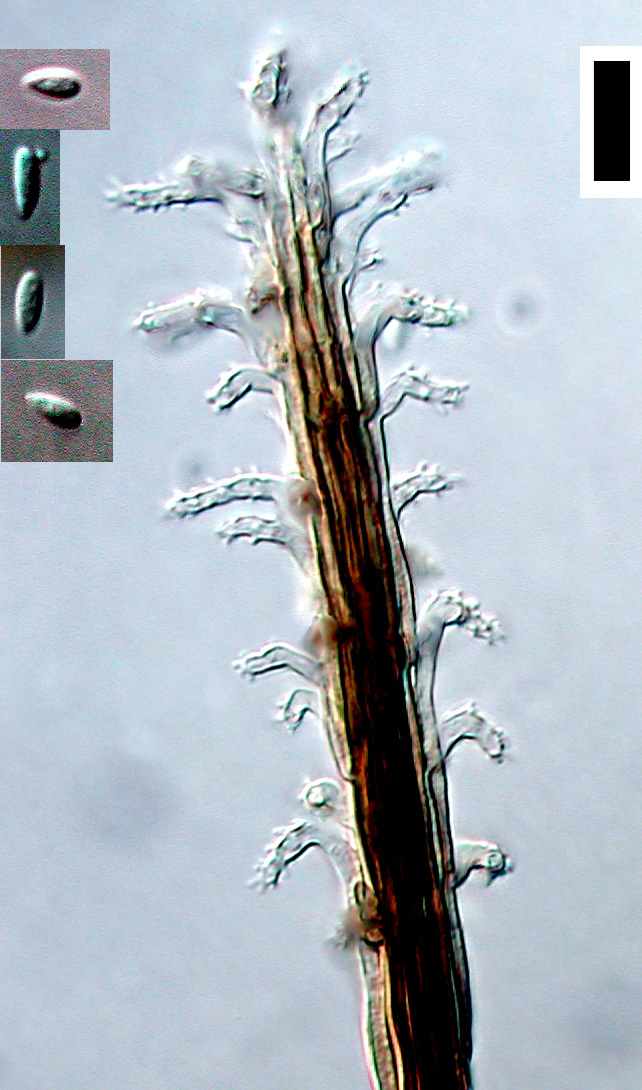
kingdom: Fungi
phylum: Ascomycota
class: Sordariomycetes
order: Xylariales
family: Diatrypaceae
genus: Phaeoisaria
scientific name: Phaeoisaria clematidis
